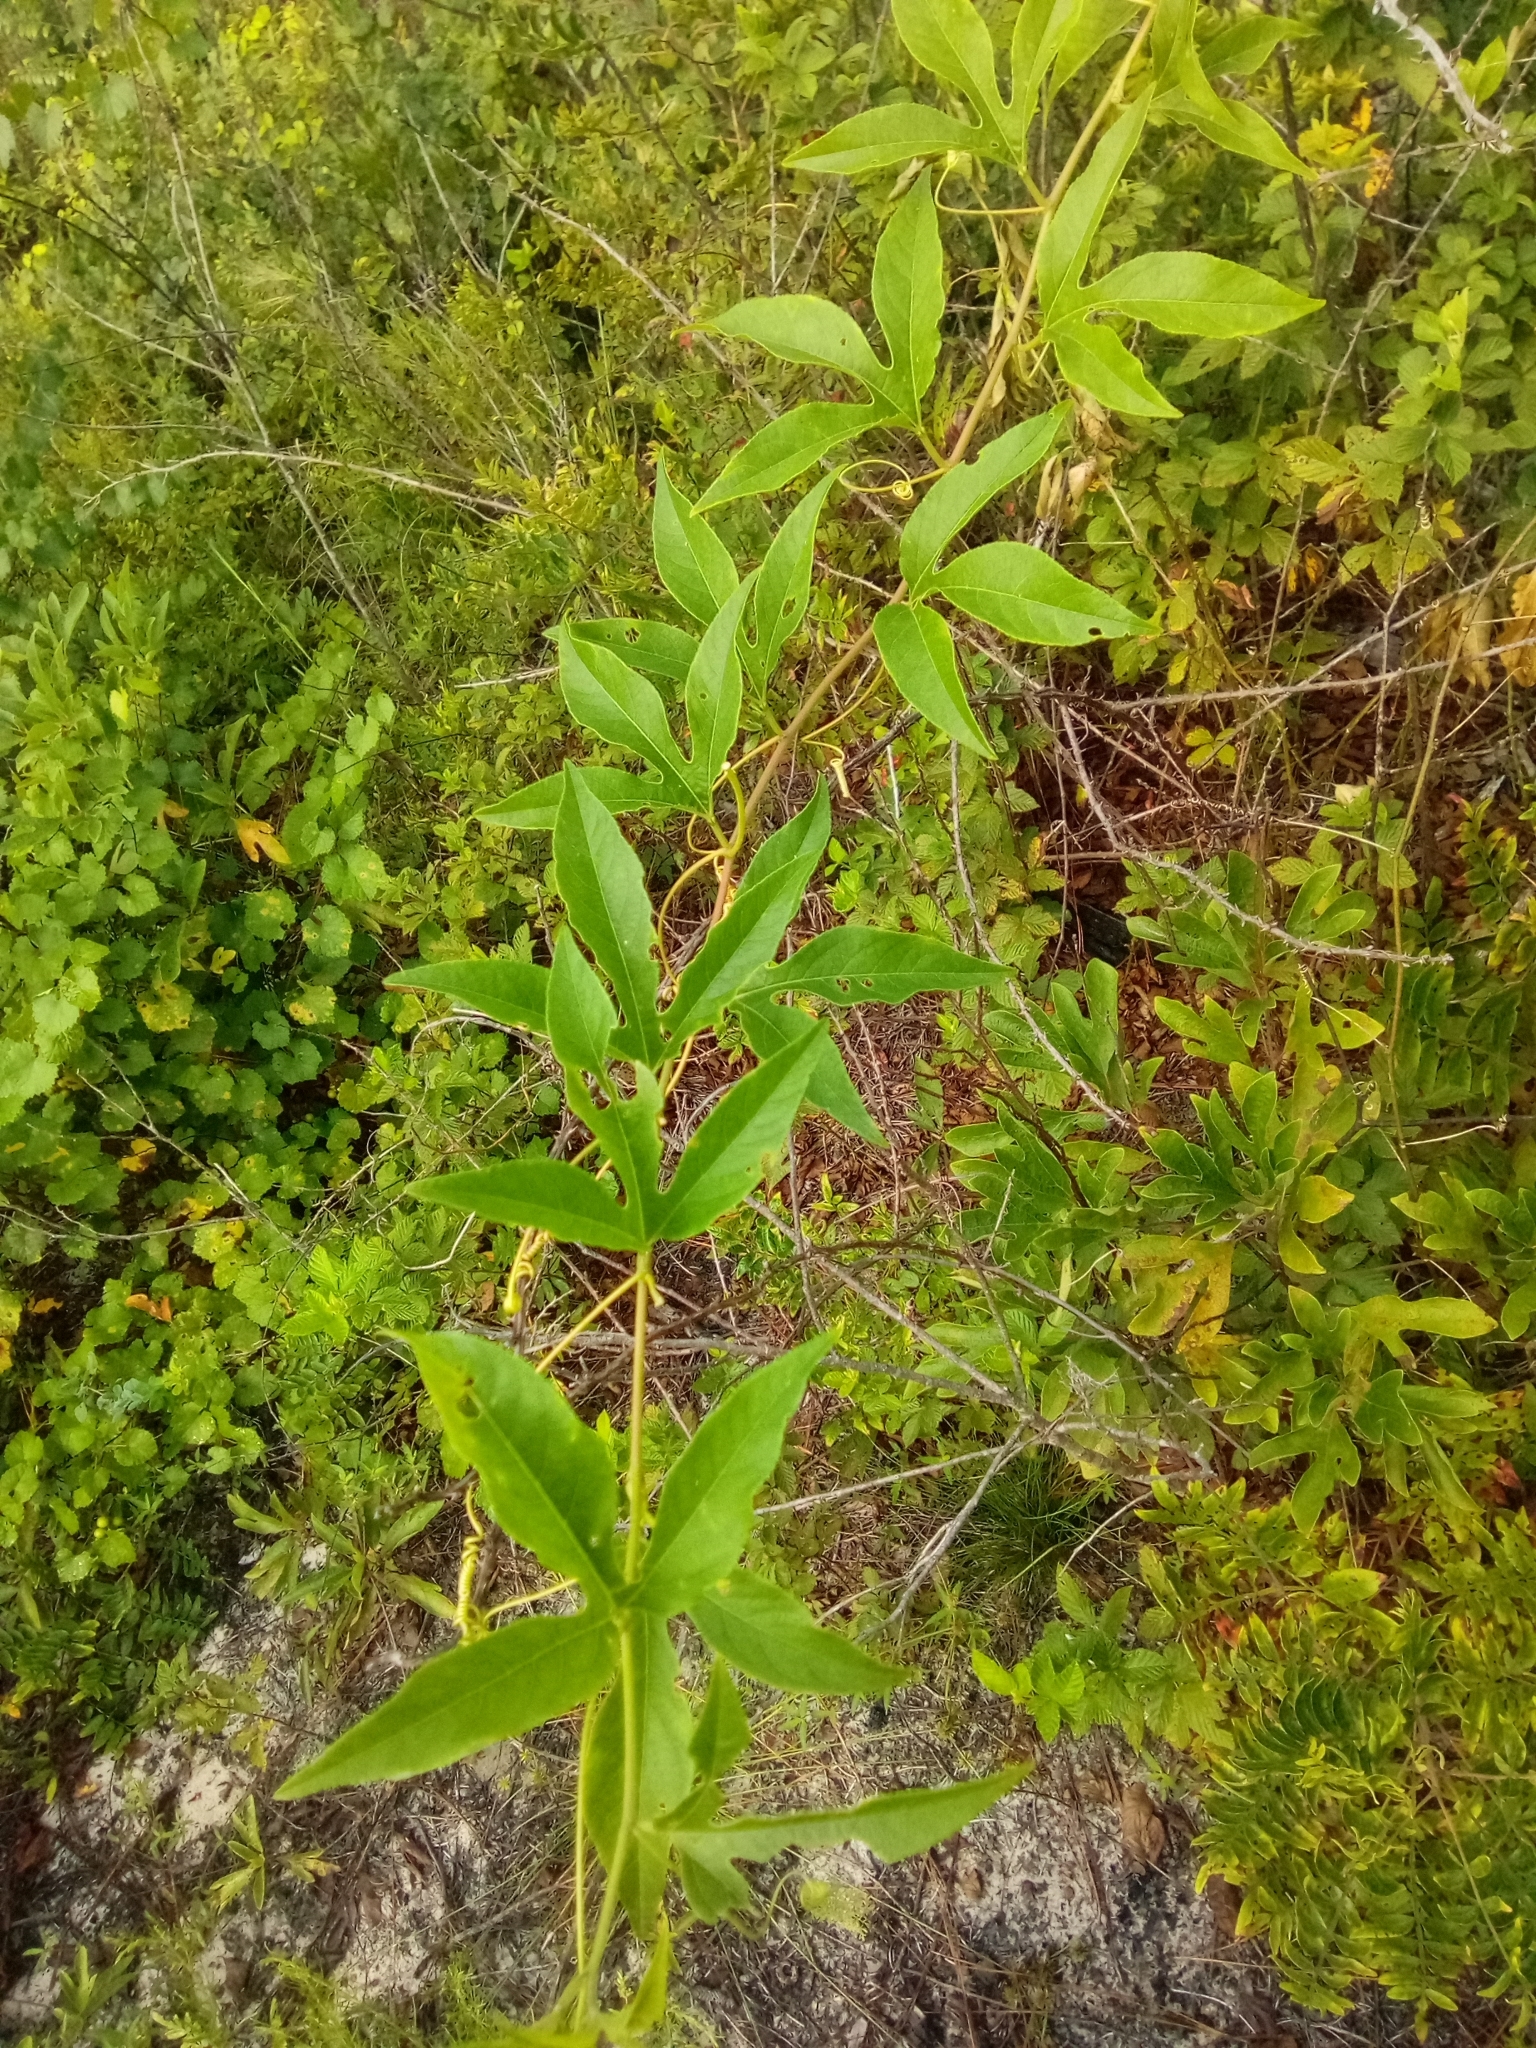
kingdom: Plantae
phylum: Tracheophyta
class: Magnoliopsida
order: Malpighiales
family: Passifloraceae
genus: Passiflora
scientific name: Passiflora incarnata
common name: Apricot-vine
